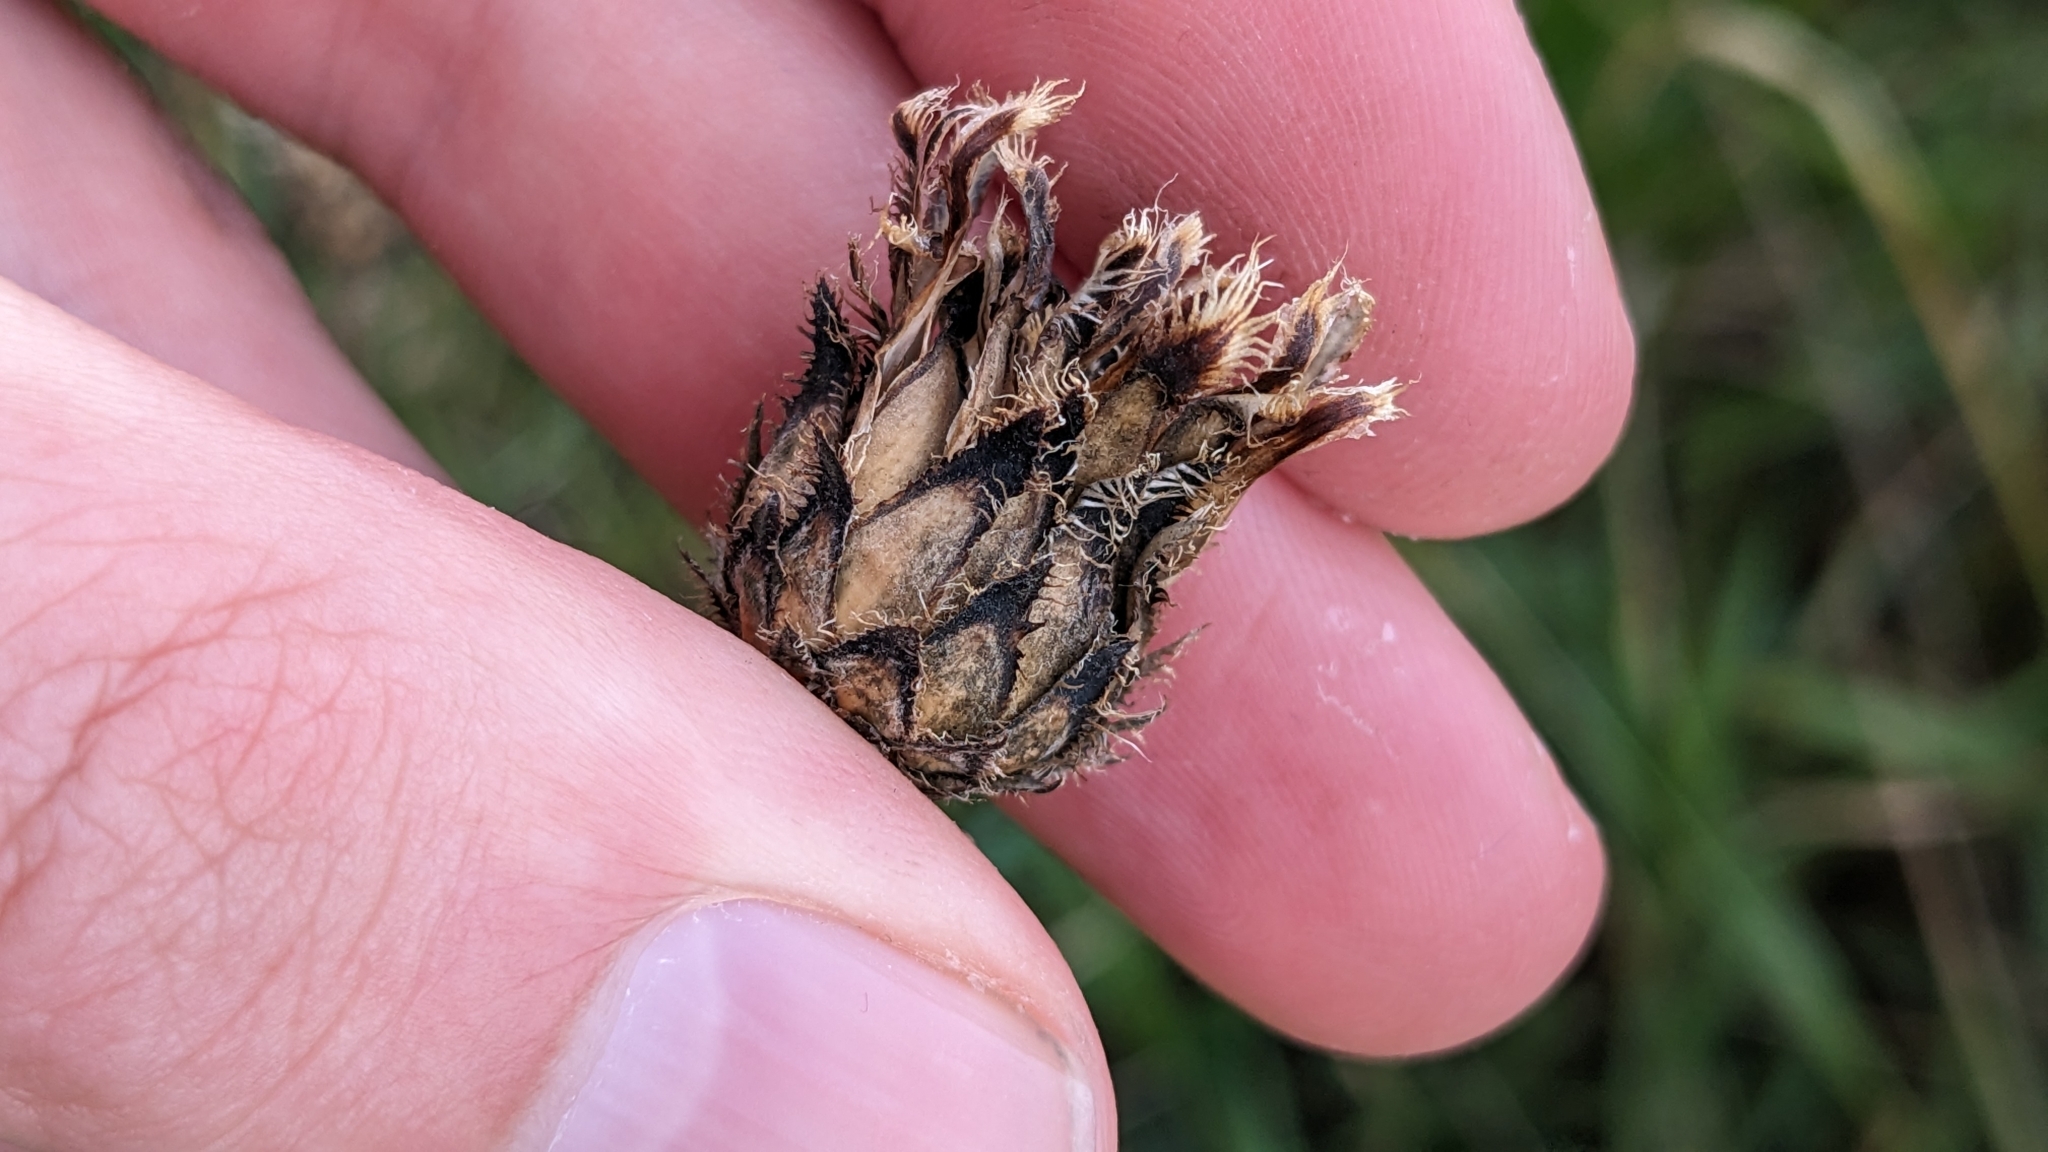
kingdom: Plantae
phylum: Tracheophyta
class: Magnoliopsida
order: Asterales
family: Asteraceae
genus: Centaurea
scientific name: Centaurea scabiosa
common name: Greater knapweed
